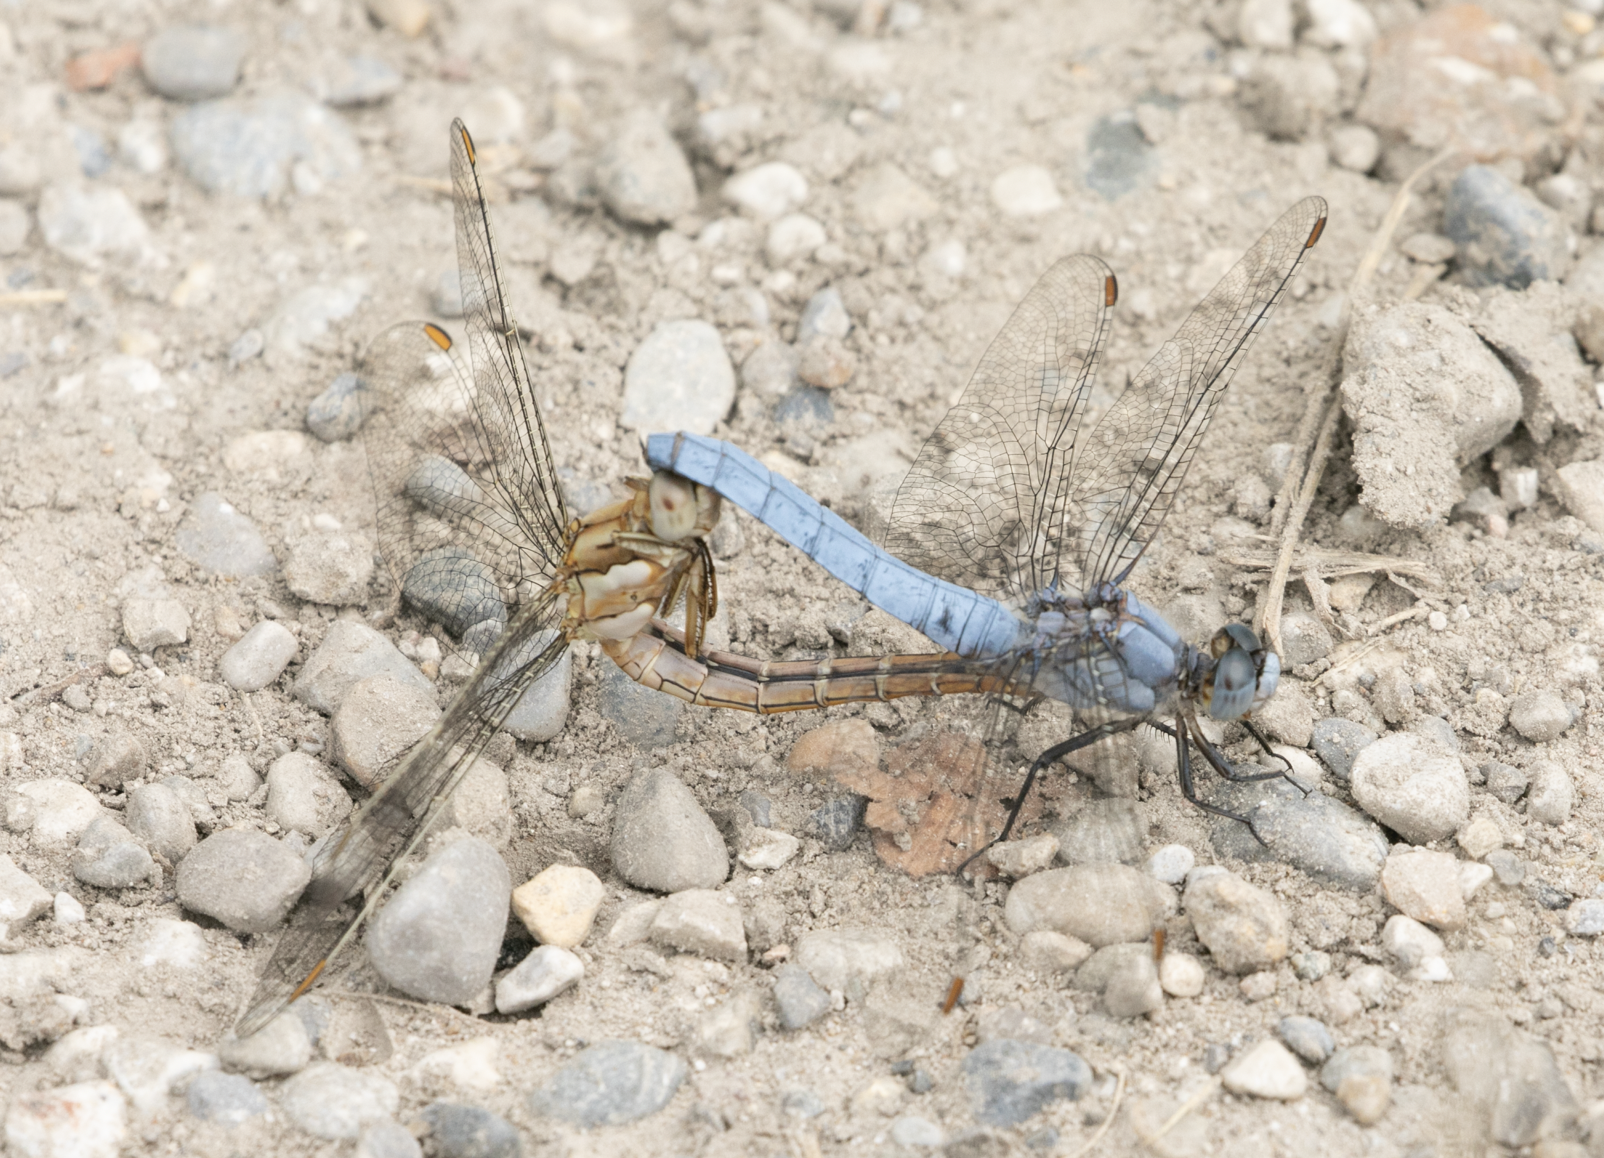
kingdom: Animalia
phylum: Arthropoda
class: Insecta
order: Odonata
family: Libellulidae
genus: Orthetrum
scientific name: Orthetrum brunneum
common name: Southern skimmer
